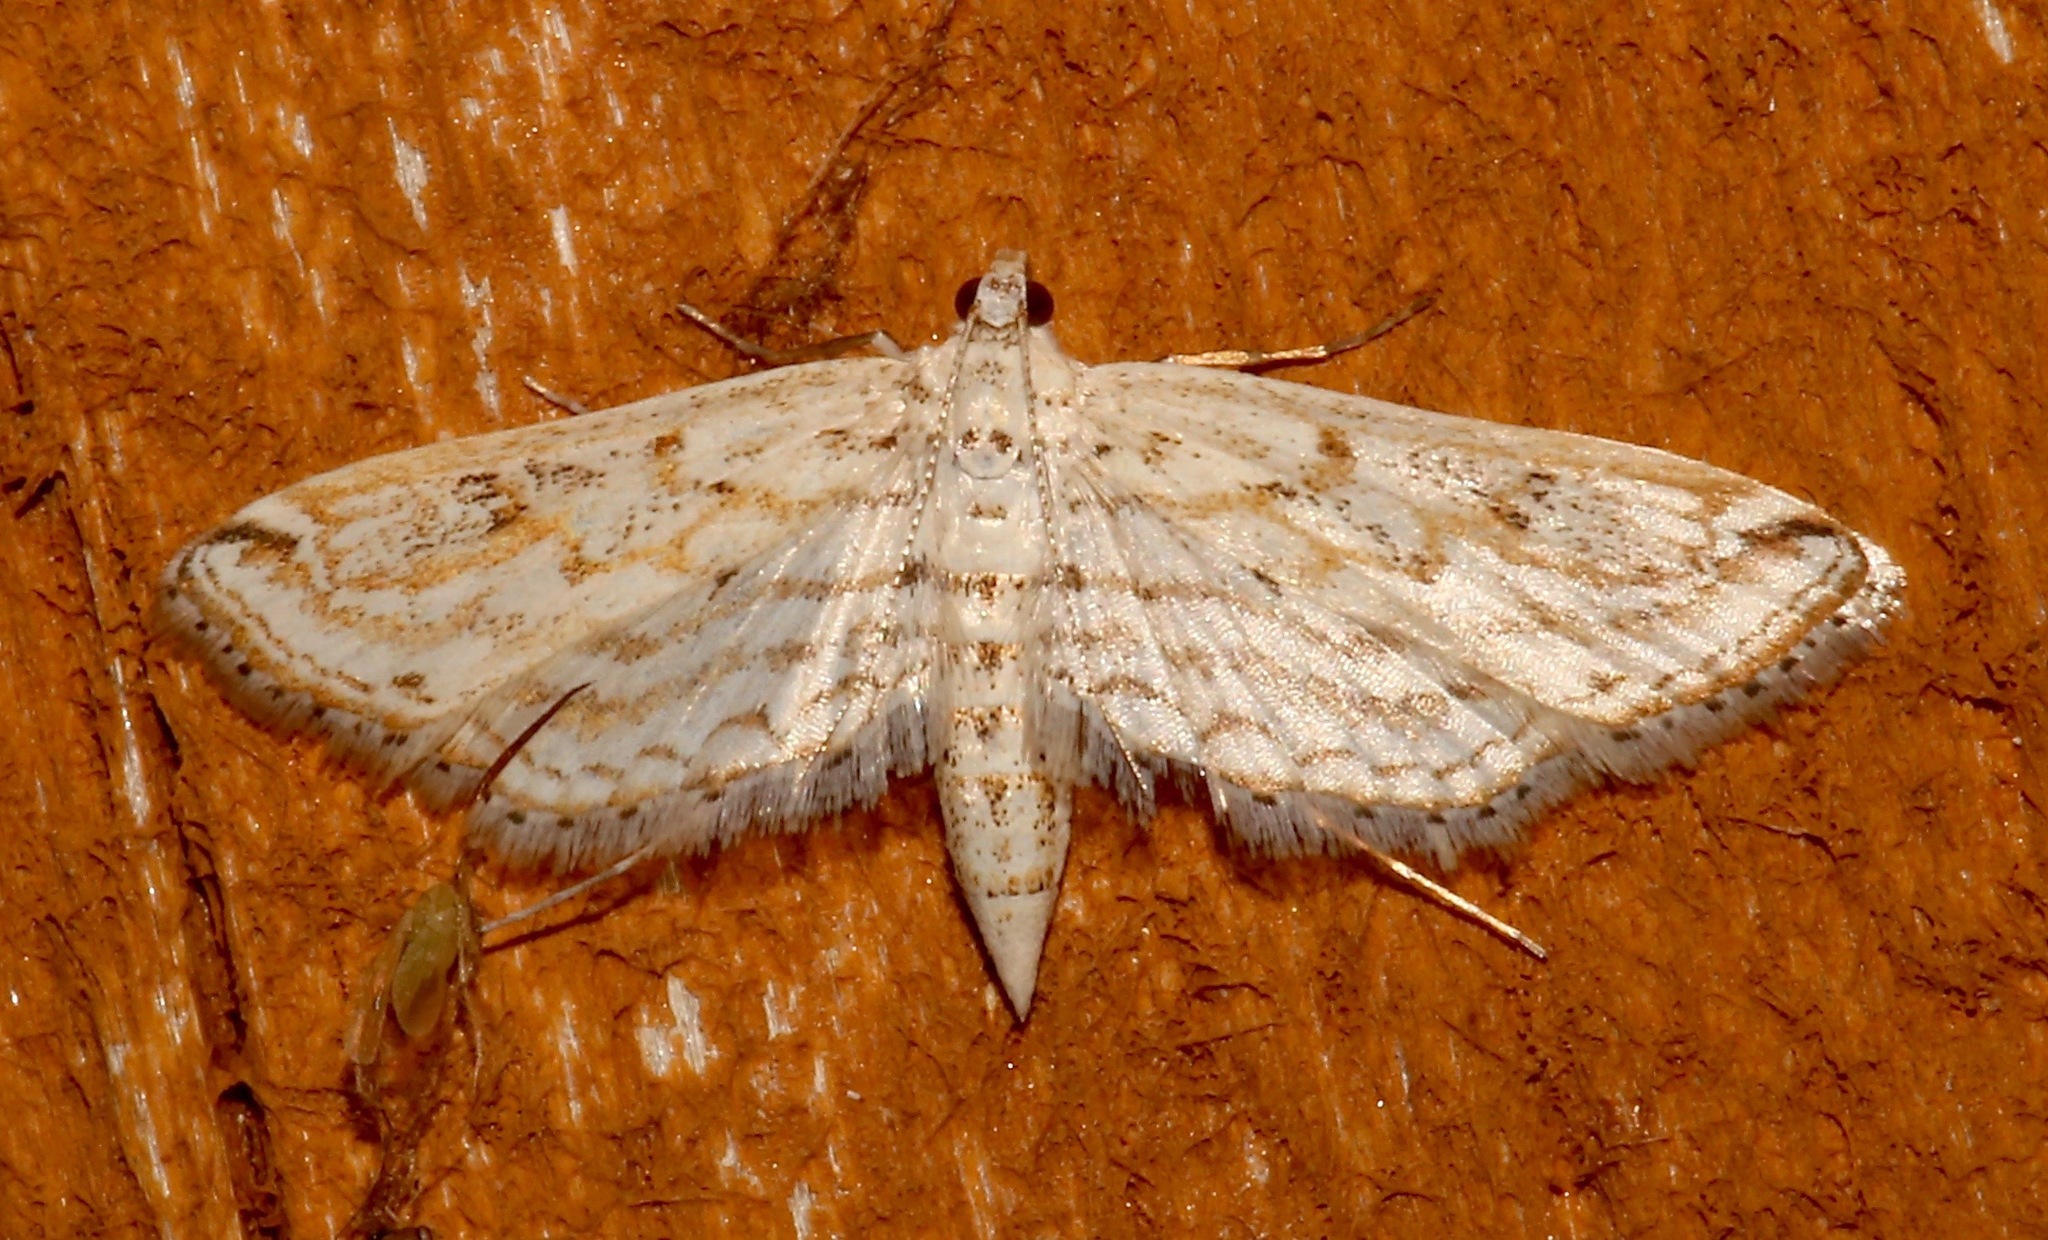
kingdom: Animalia
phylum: Arthropoda
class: Insecta
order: Lepidoptera
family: Crambidae
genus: Parapoynx
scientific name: Parapoynx allionealis
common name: Bladderwort casemaker
